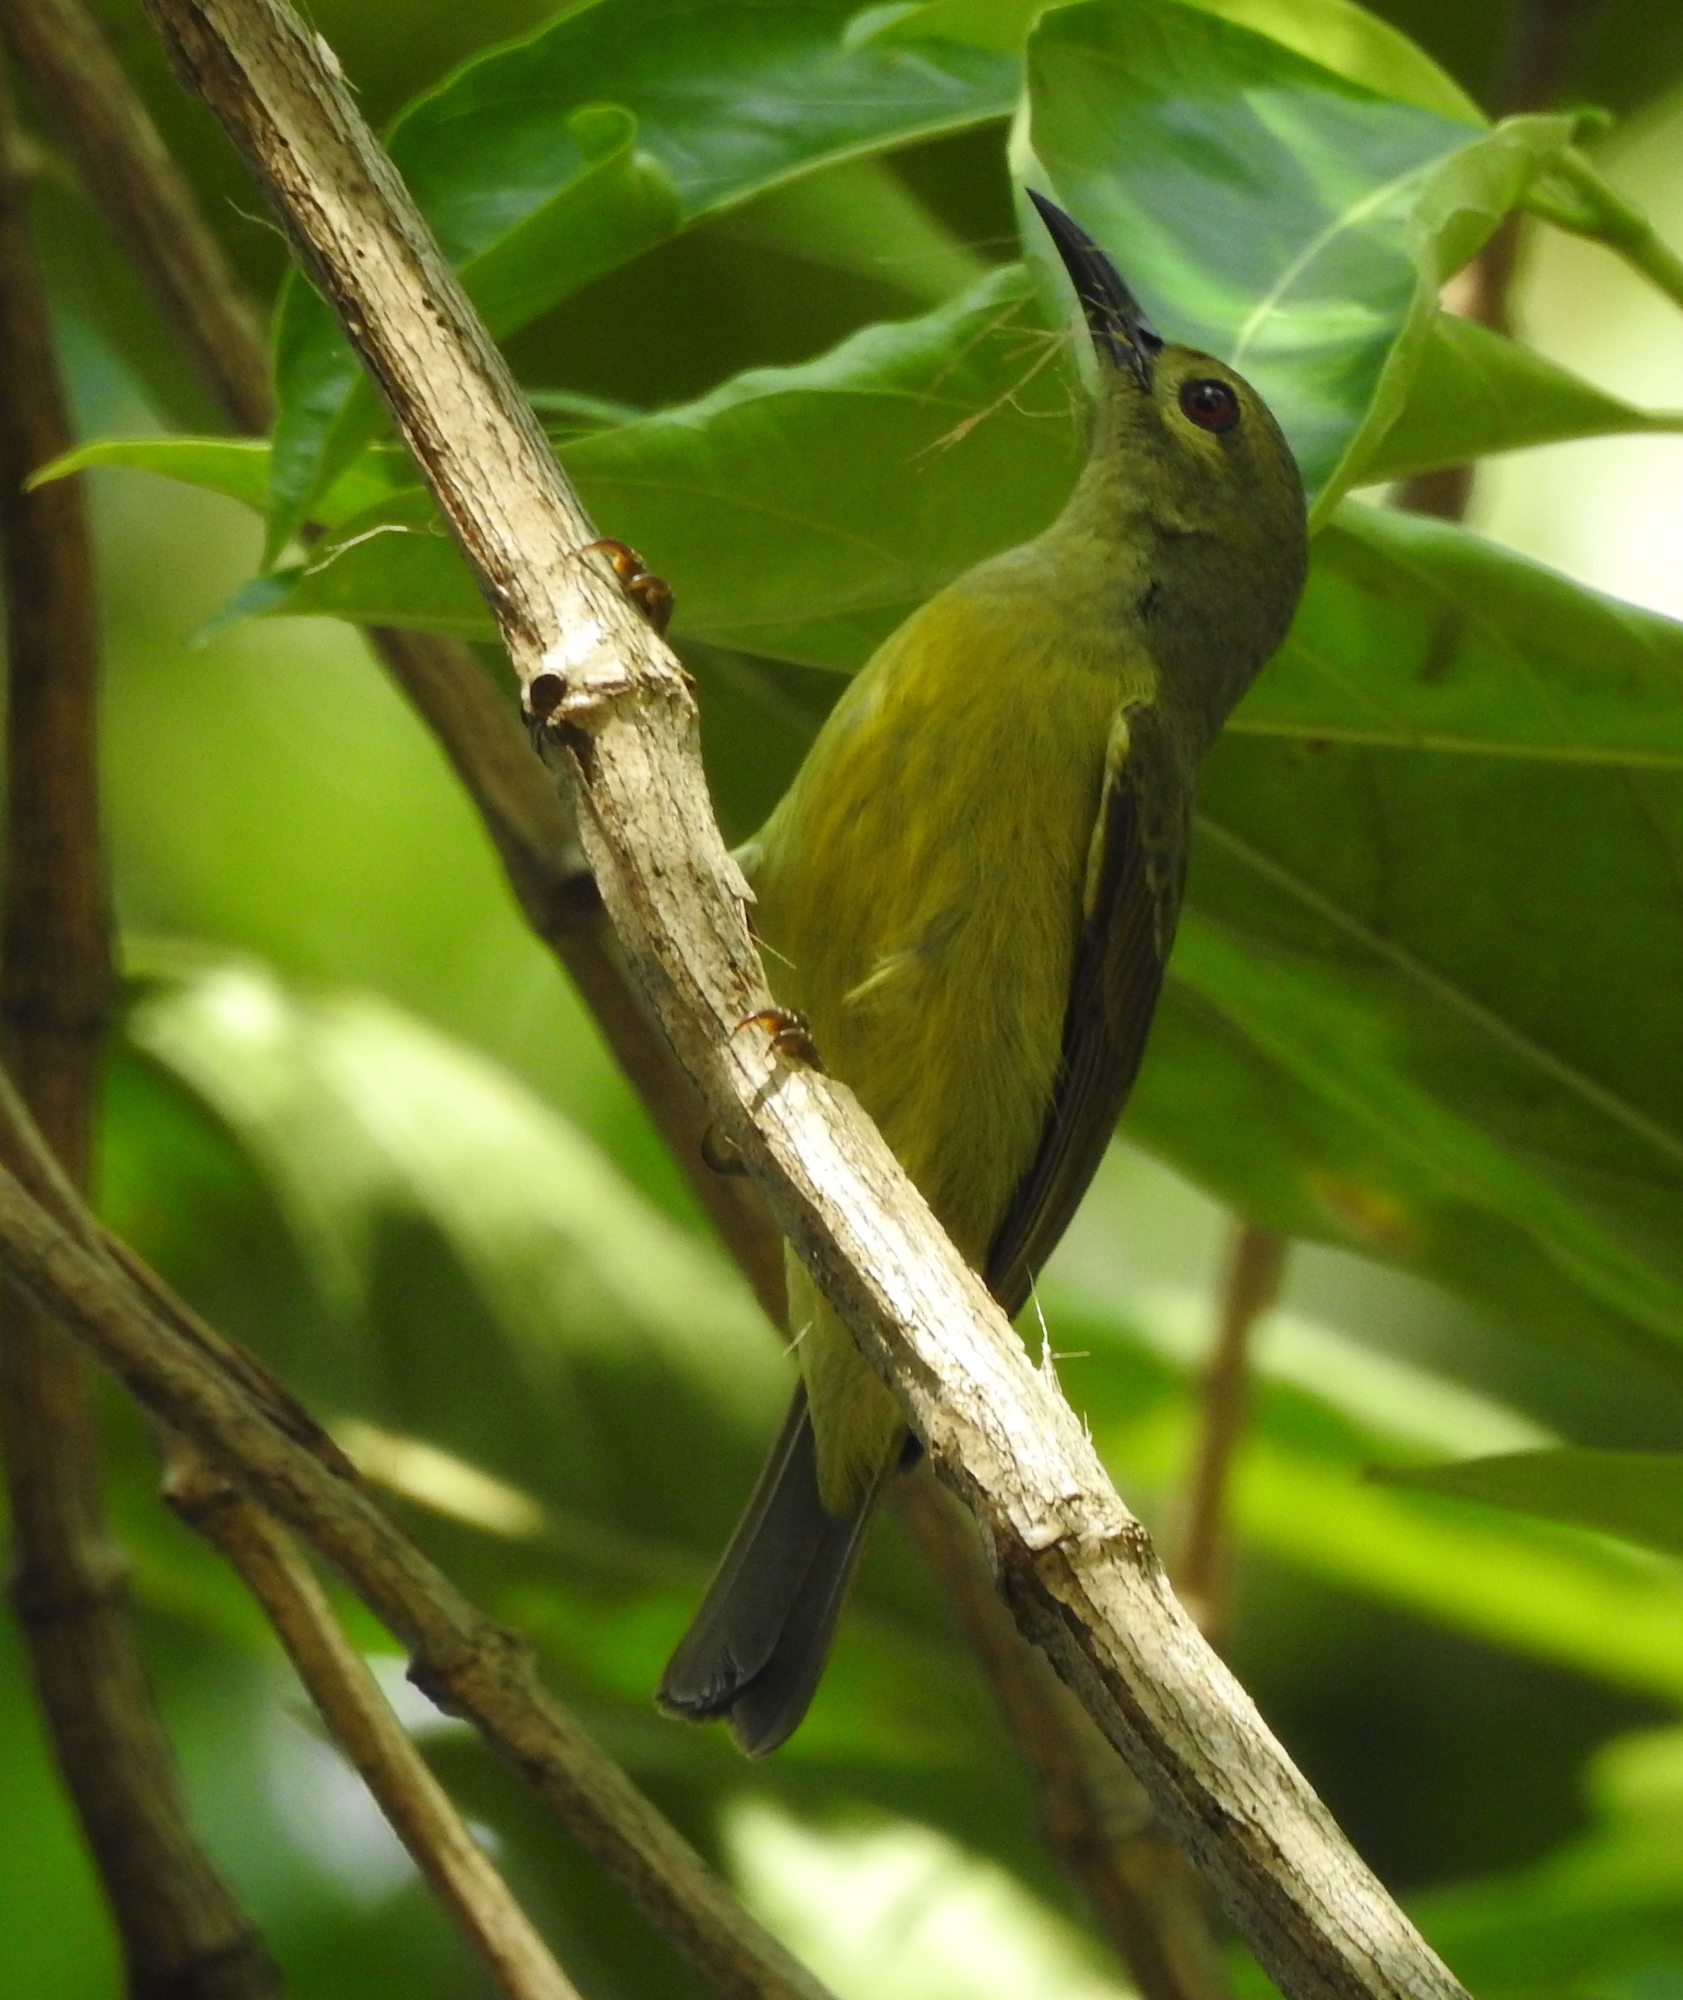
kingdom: Animalia
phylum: Chordata
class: Aves
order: Passeriformes
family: Nectariniidae
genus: Anthreptes
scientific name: Anthreptes malacensis
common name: Brown-throated sunbird
